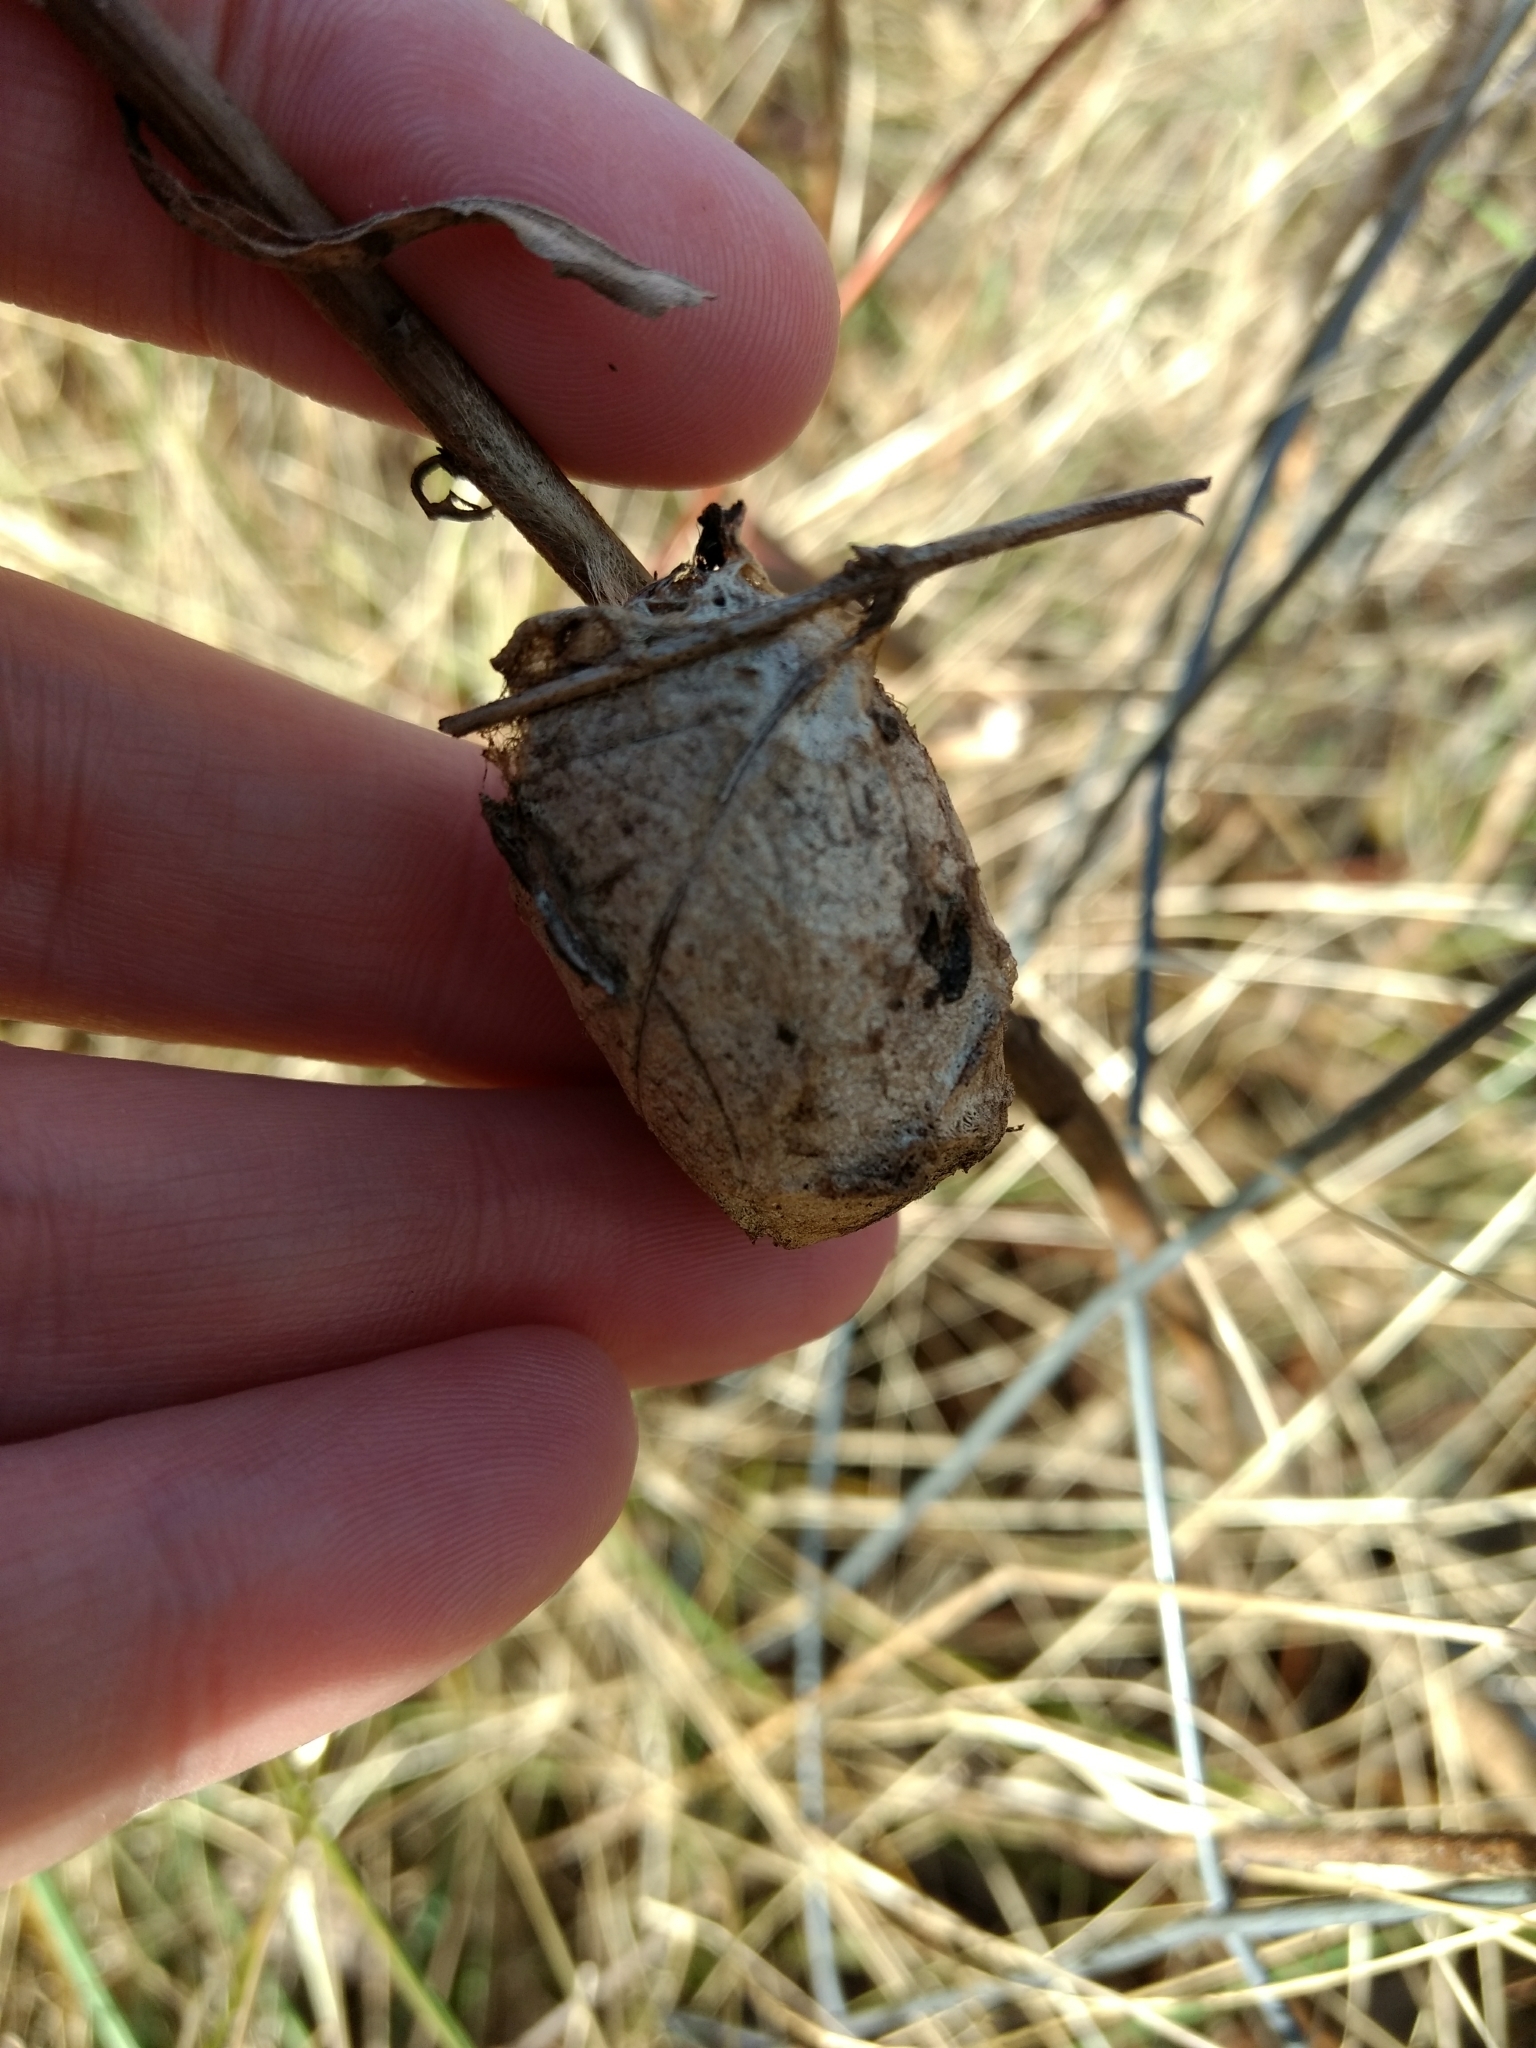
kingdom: Animalia
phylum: Arthropoda
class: Insecta
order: Lepidoptera
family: Saturniidae
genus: Antheraea
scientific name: Antheraea polyphemus
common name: Polyphemus moth
